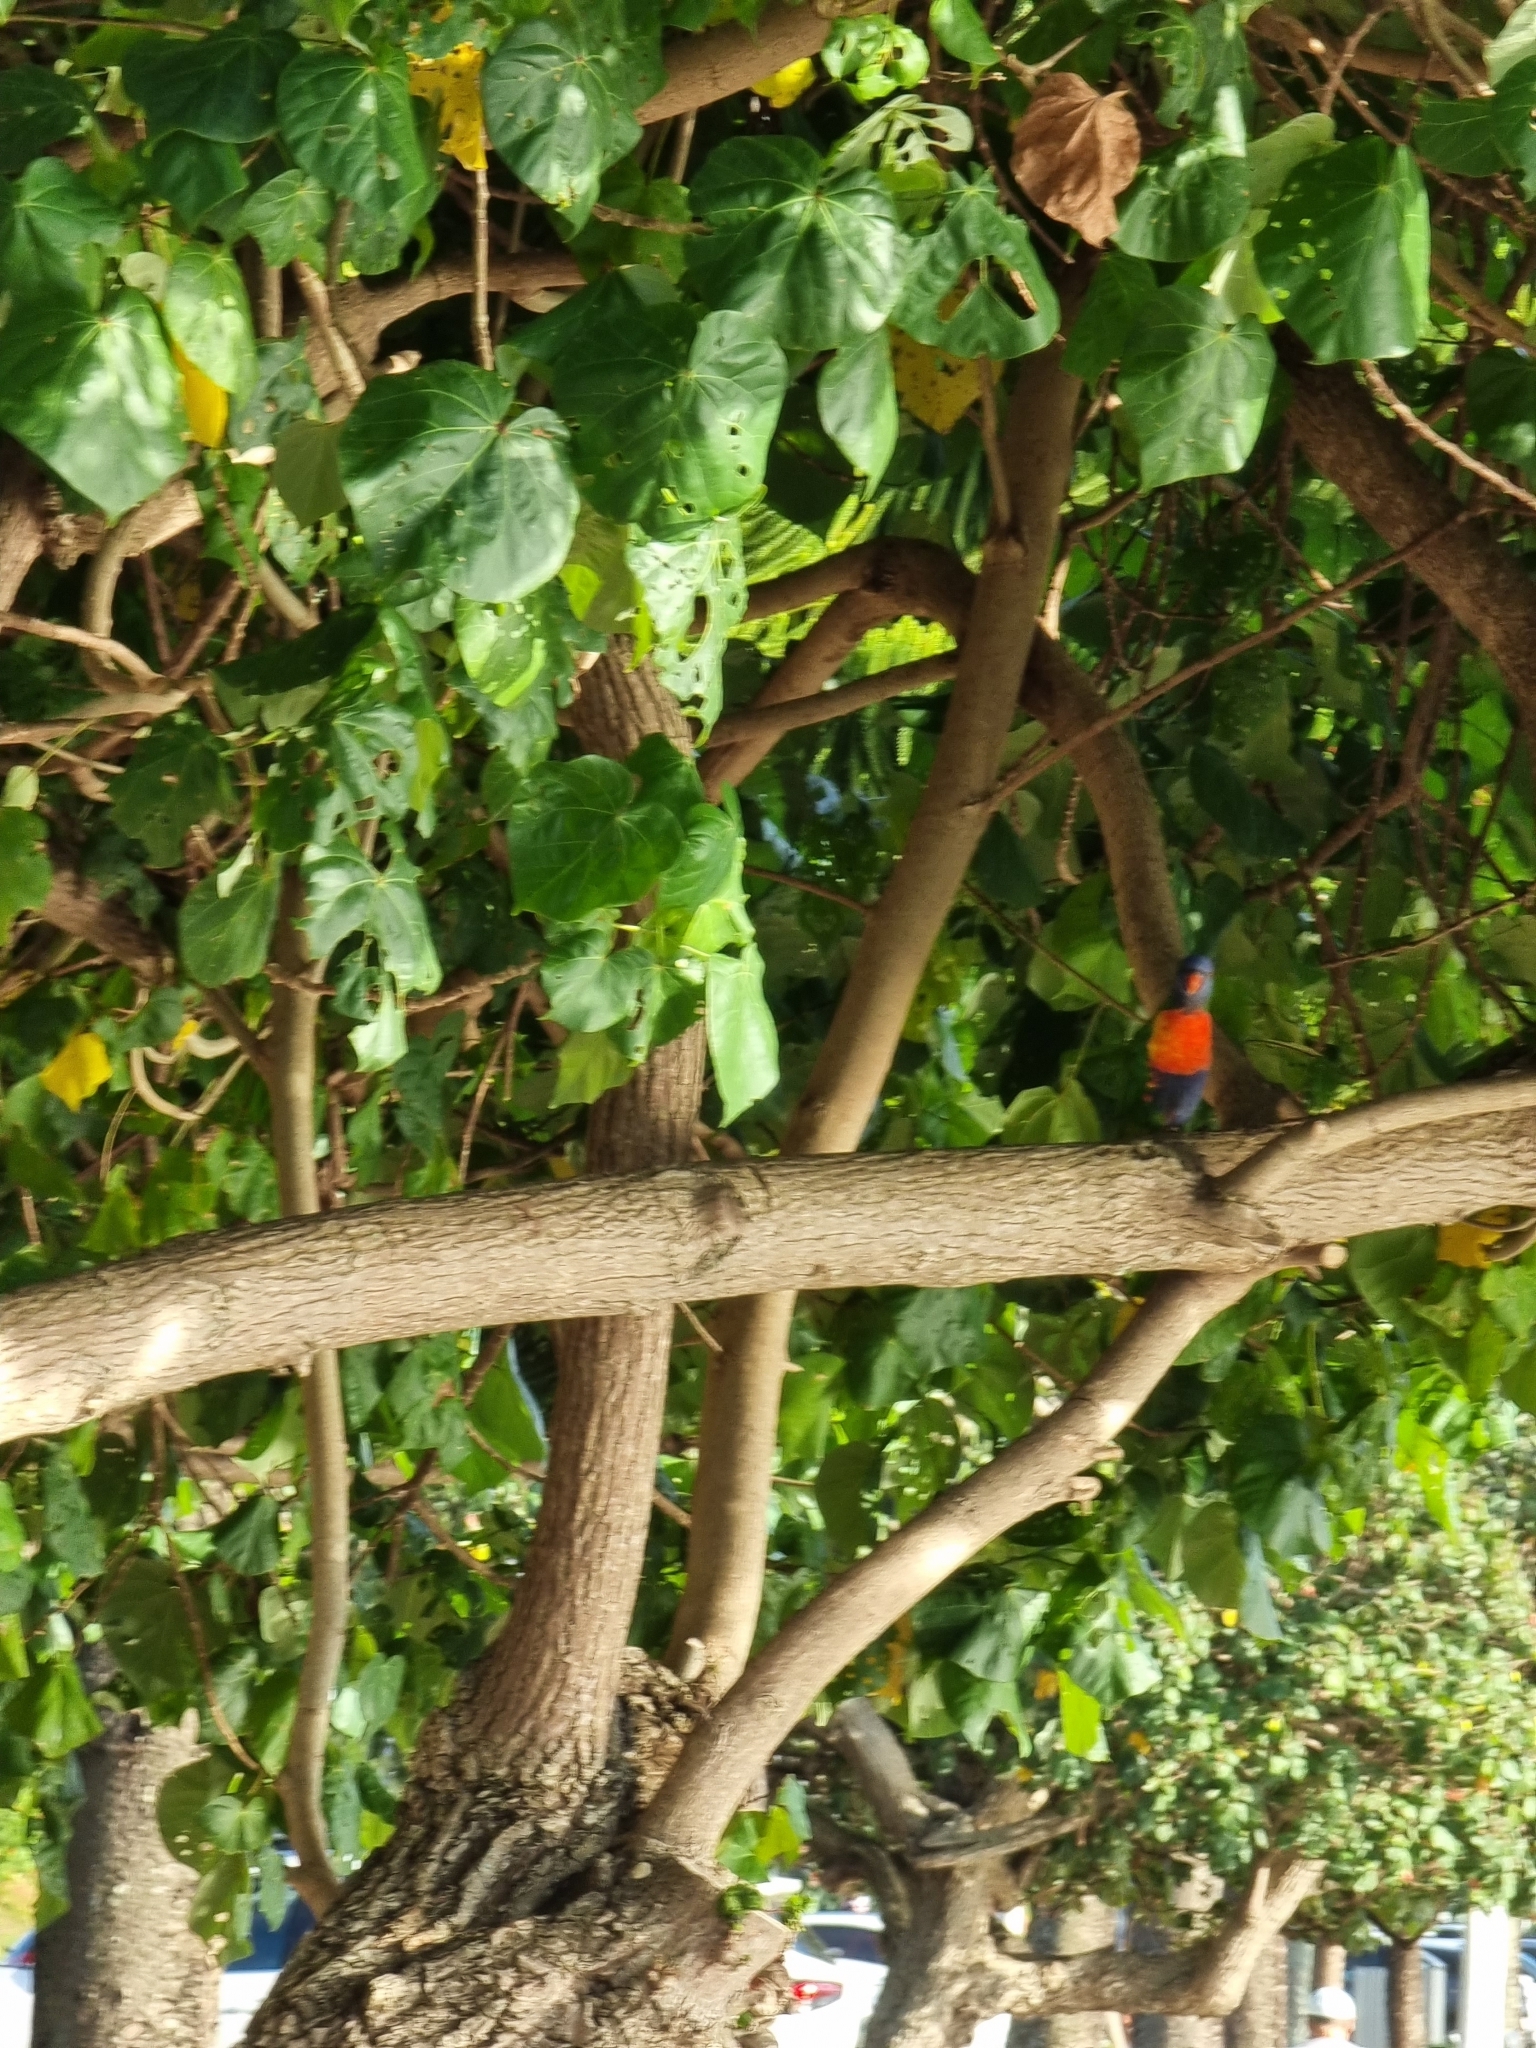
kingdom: Animalia
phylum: Chordata
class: Aves
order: Psittaciformes
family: Psittacidae
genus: Trichoglossus
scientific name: Trichoglossus haematodus
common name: Coconut lorikeet
